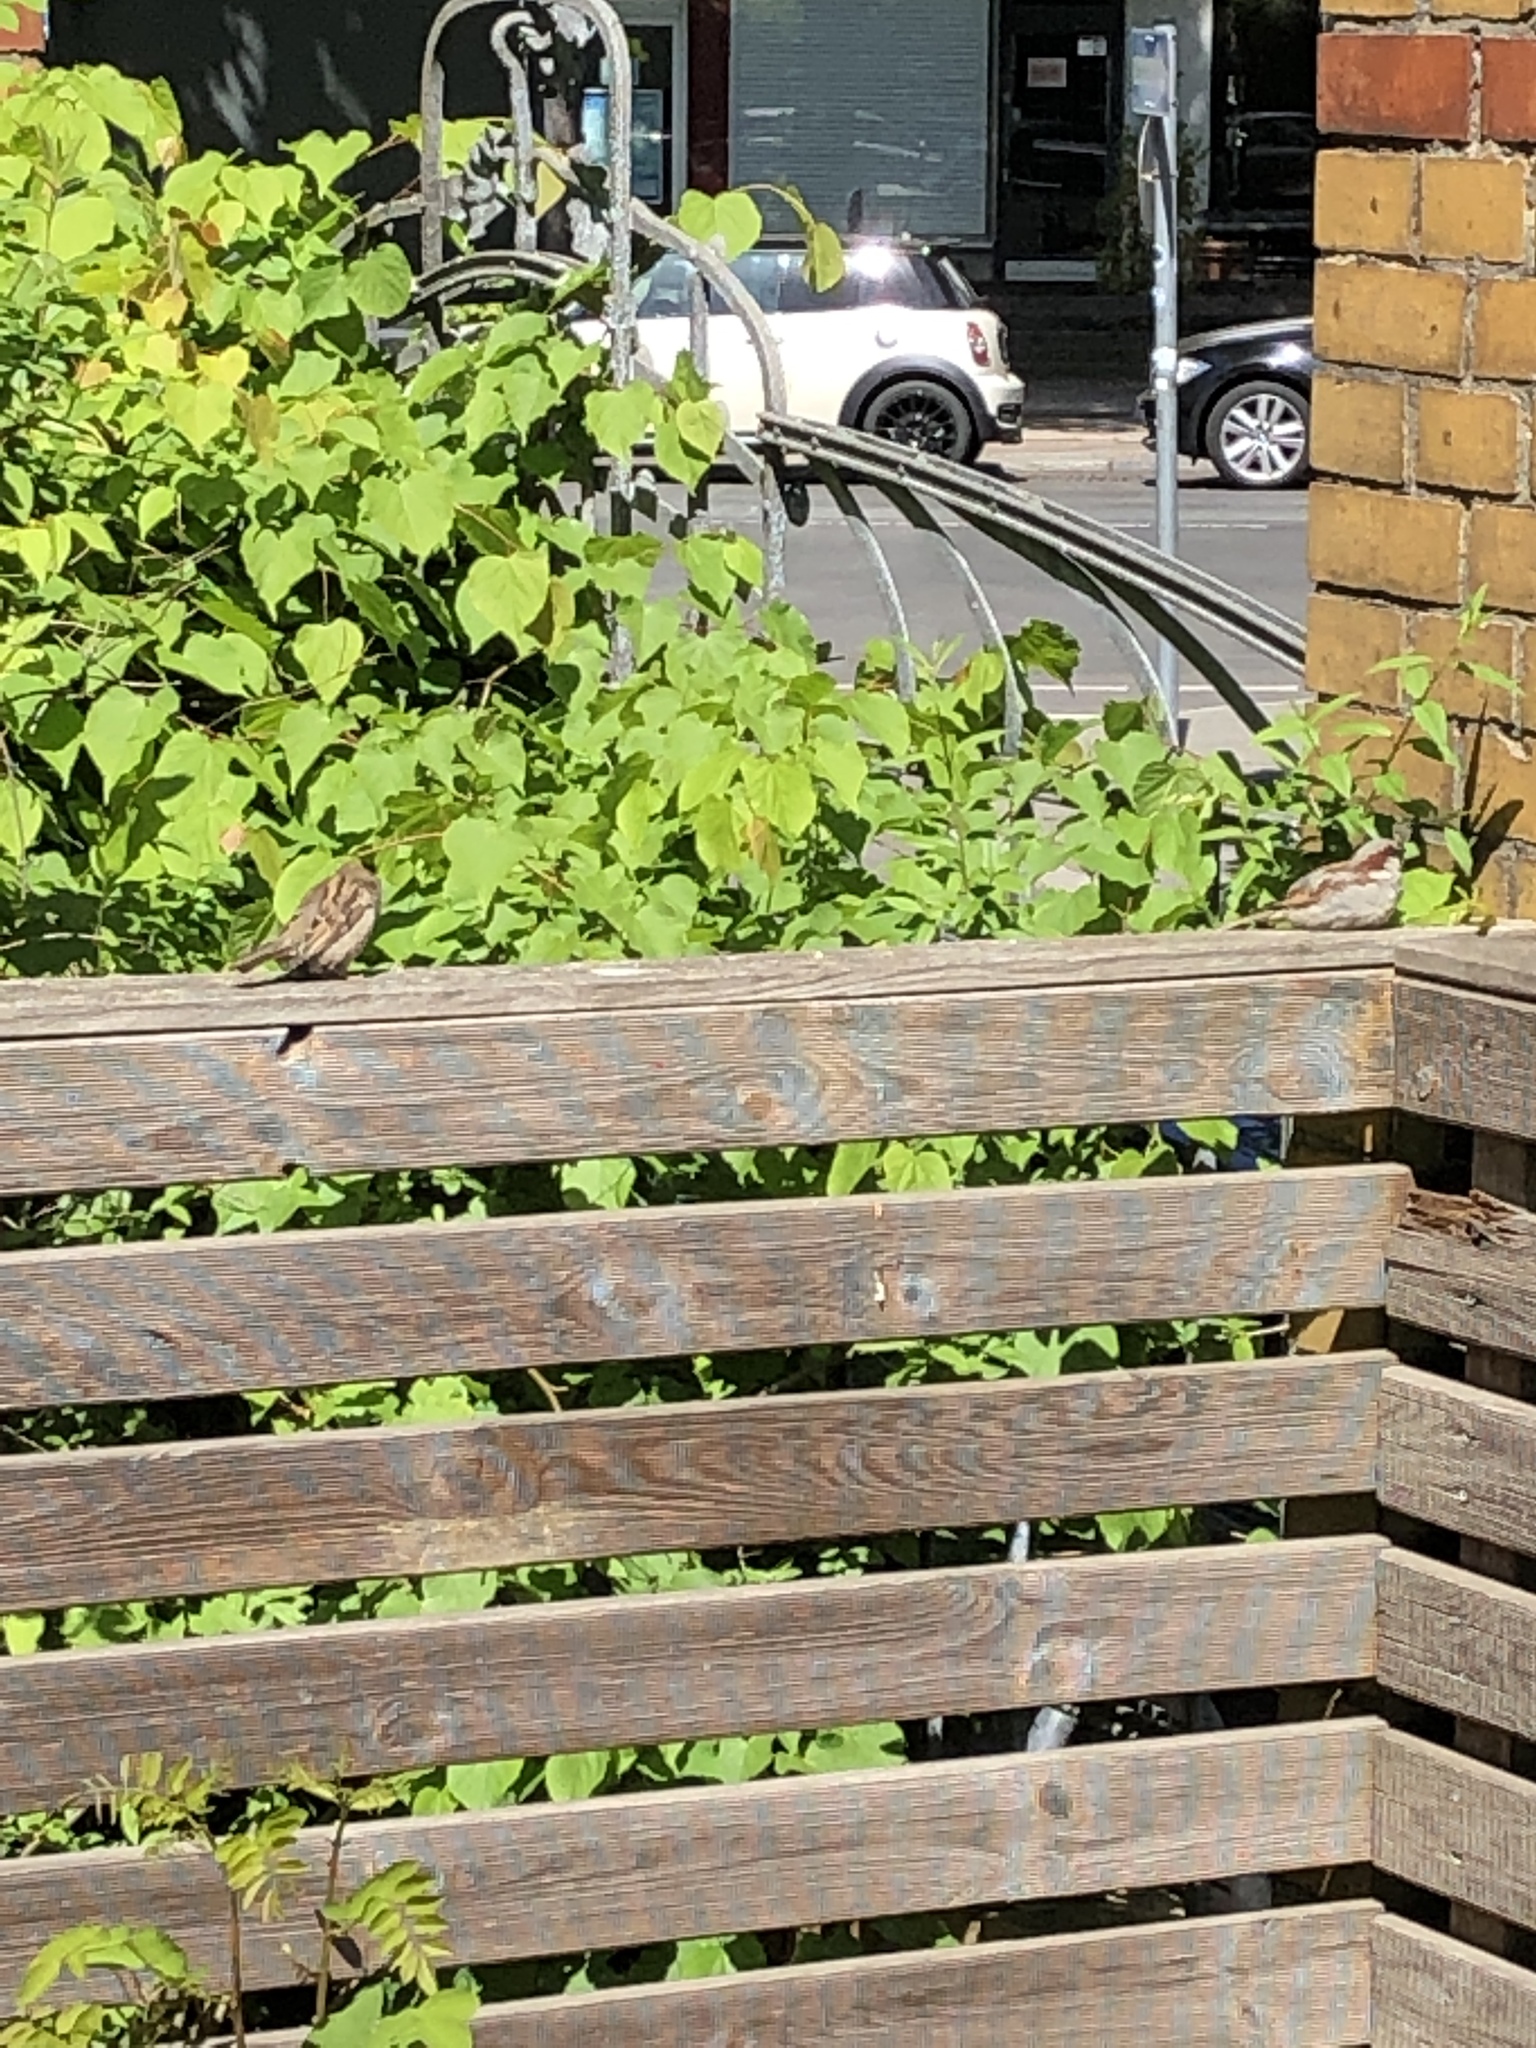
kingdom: Animalia
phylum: Chordata
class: Aves
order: Passeriformes
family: Passeridae
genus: Passer
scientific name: Passer domesticus
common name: House sparrow
